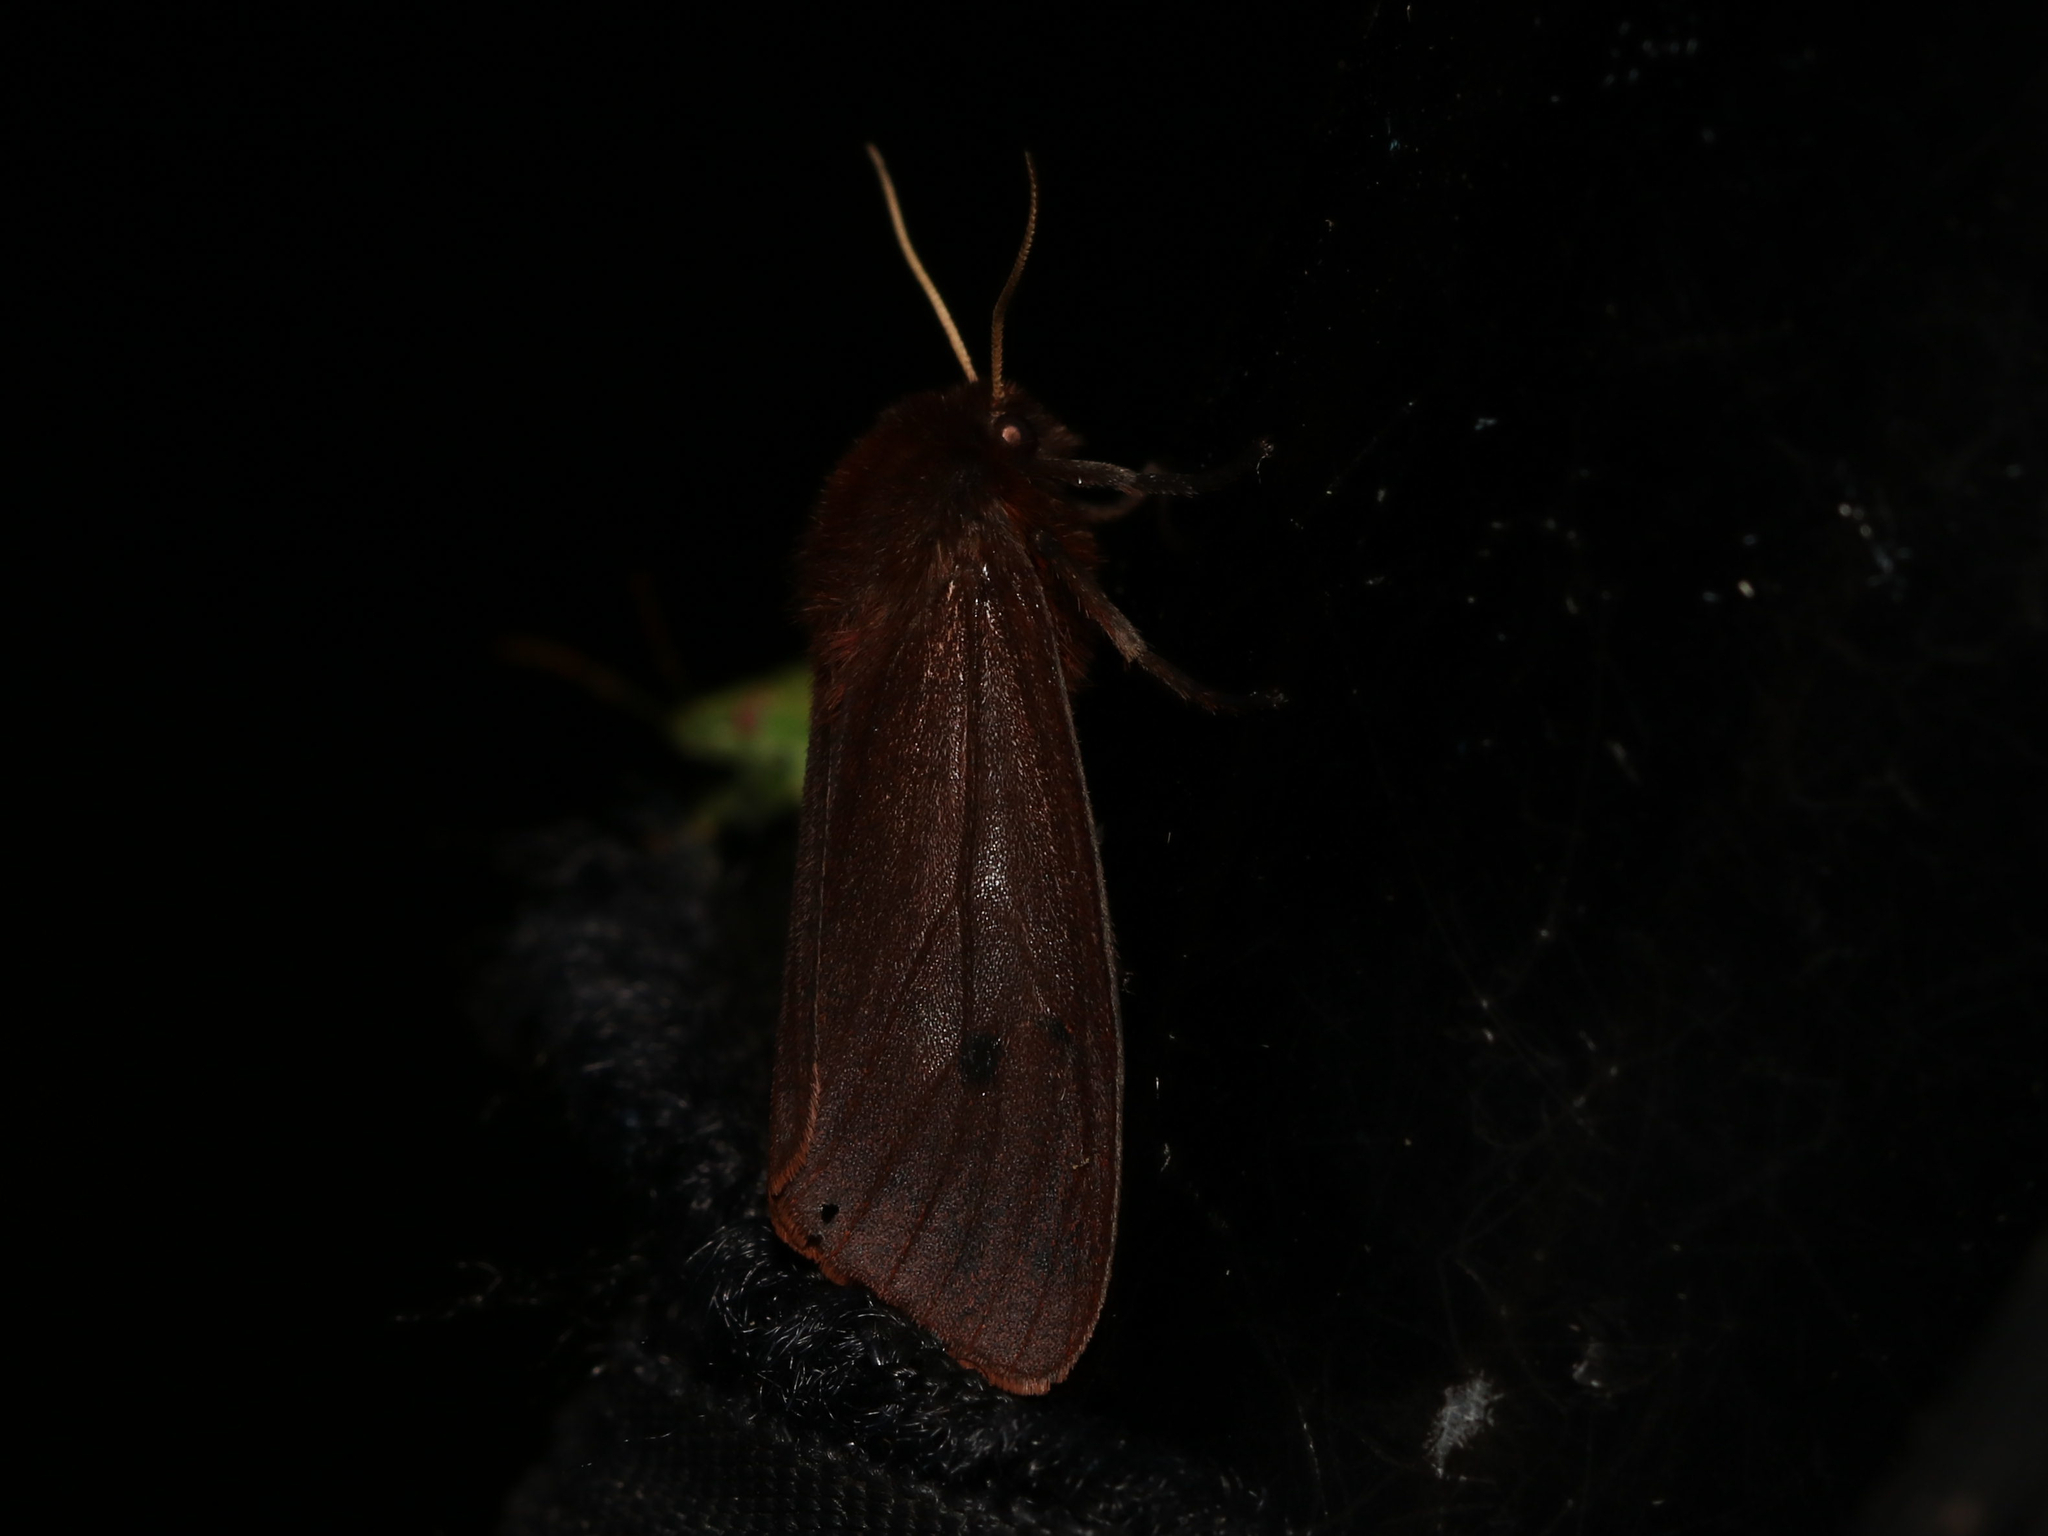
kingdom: Animalia
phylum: Arthropoda
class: Insecta
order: Lepidoptera
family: Erebidae
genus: Phragmatobia
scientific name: Phragmatobia fuliginosa
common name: Ruby tiger
